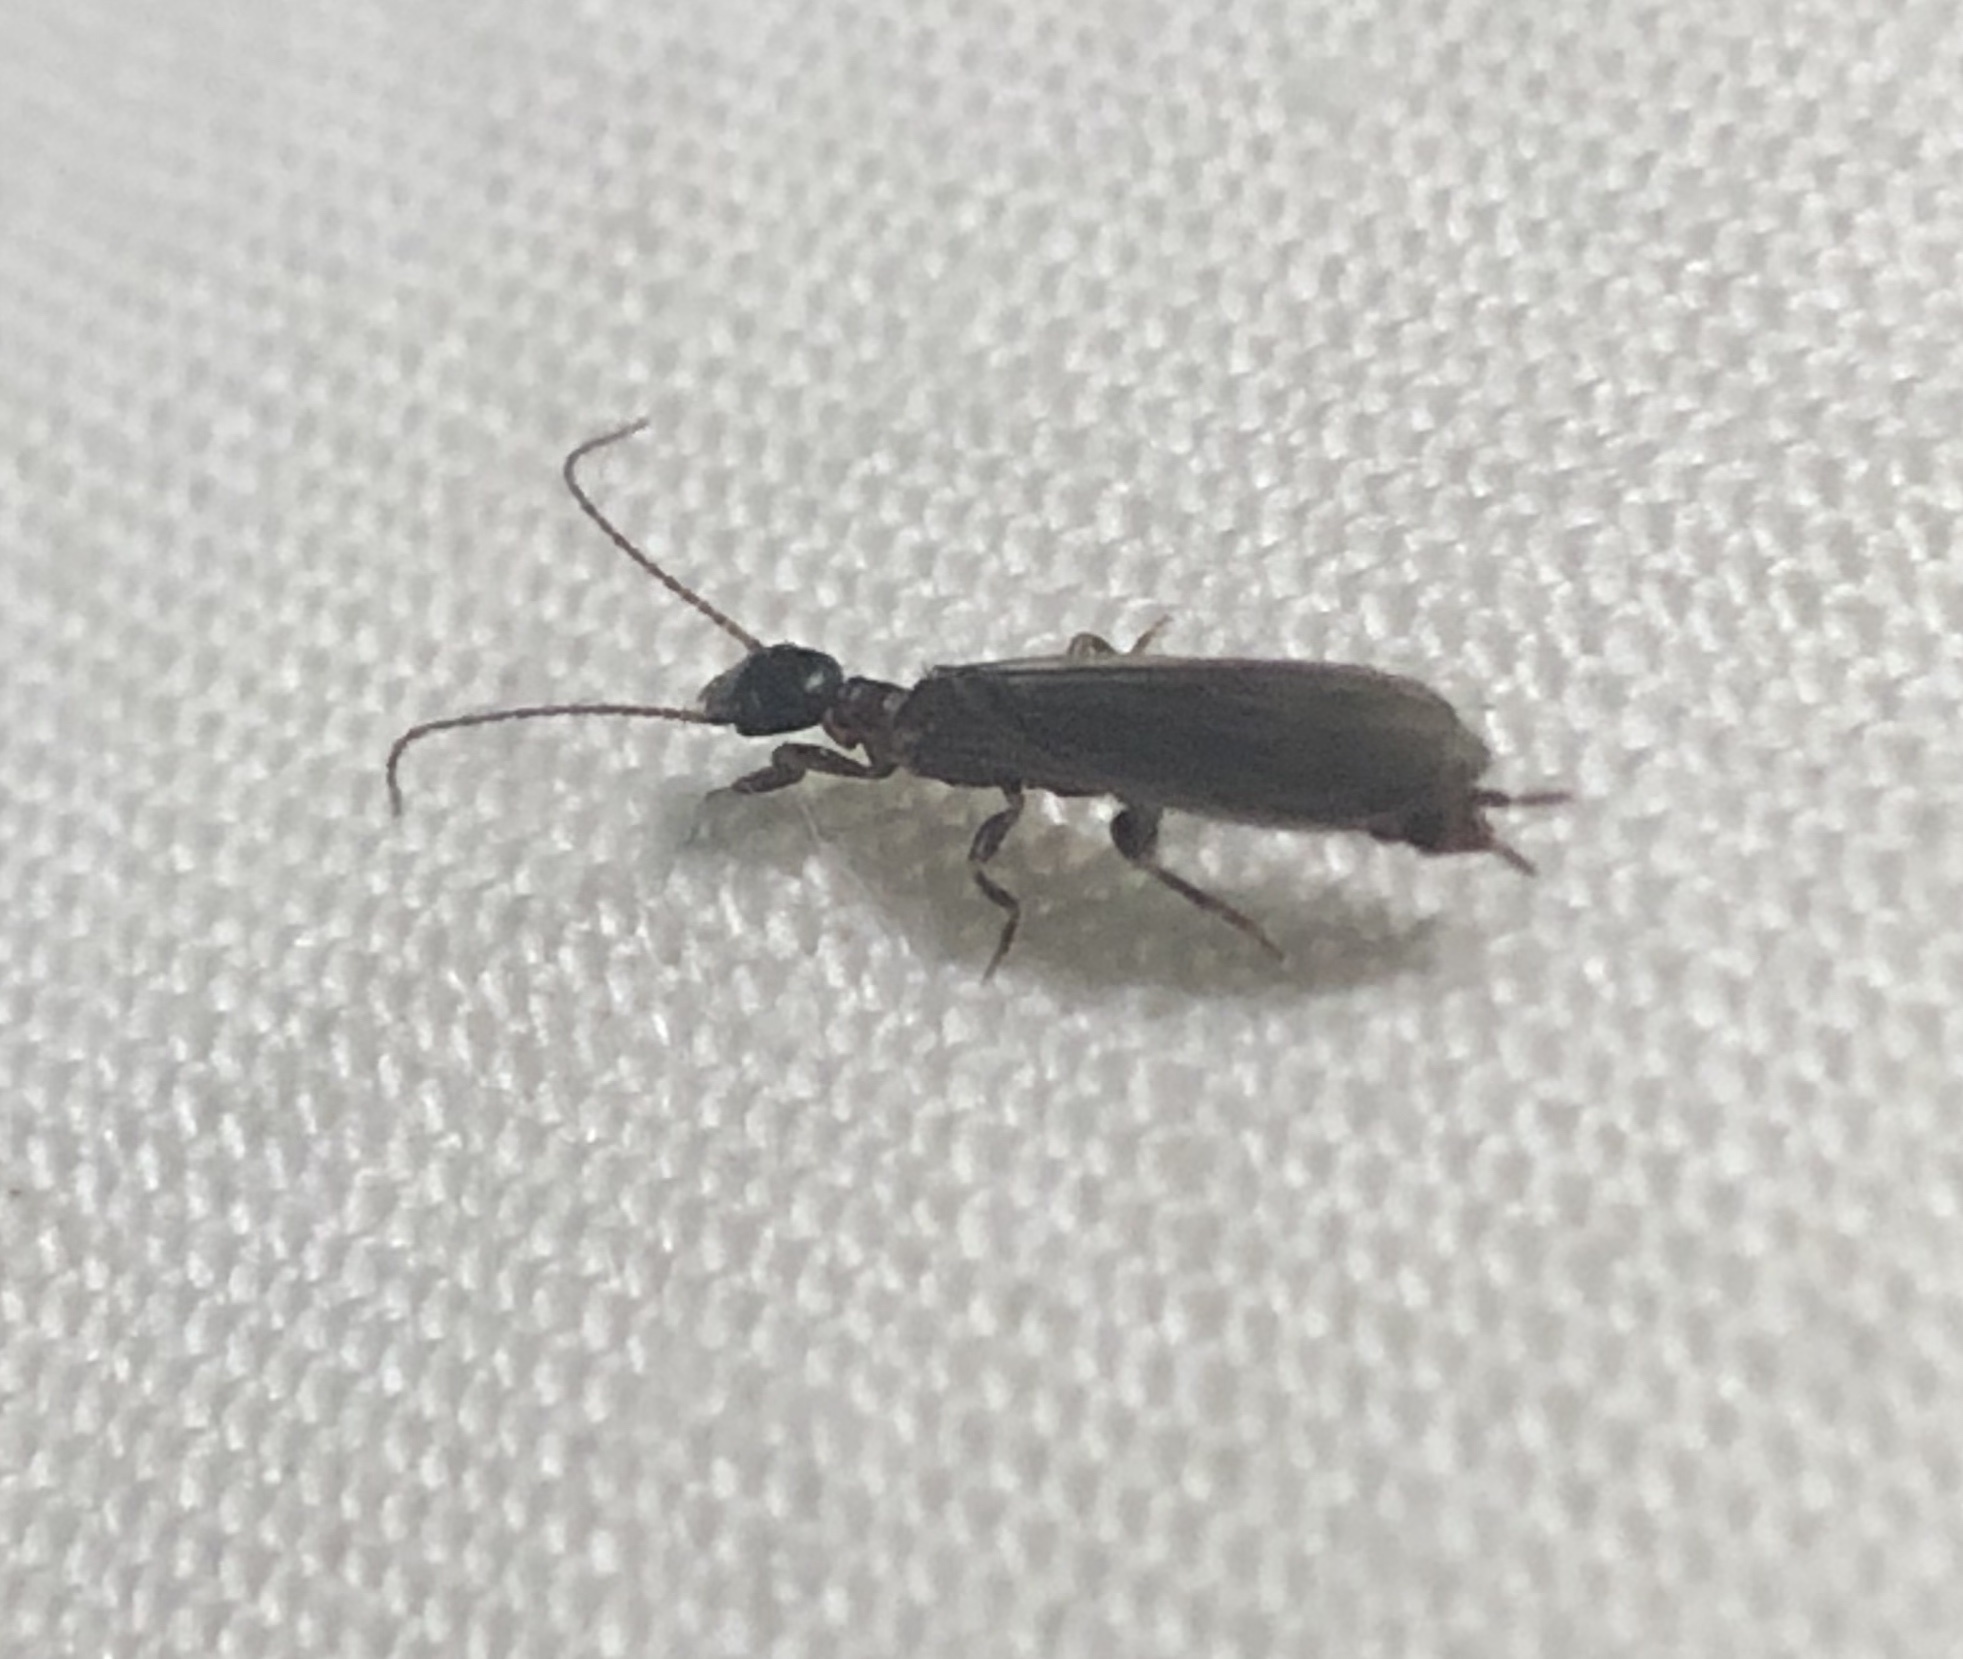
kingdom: Animalia
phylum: Arthropoda
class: Insecta
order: Embioptera
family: Oligotomidae
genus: Oligotoma
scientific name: Oligotoma nigra
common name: Black webspinner
